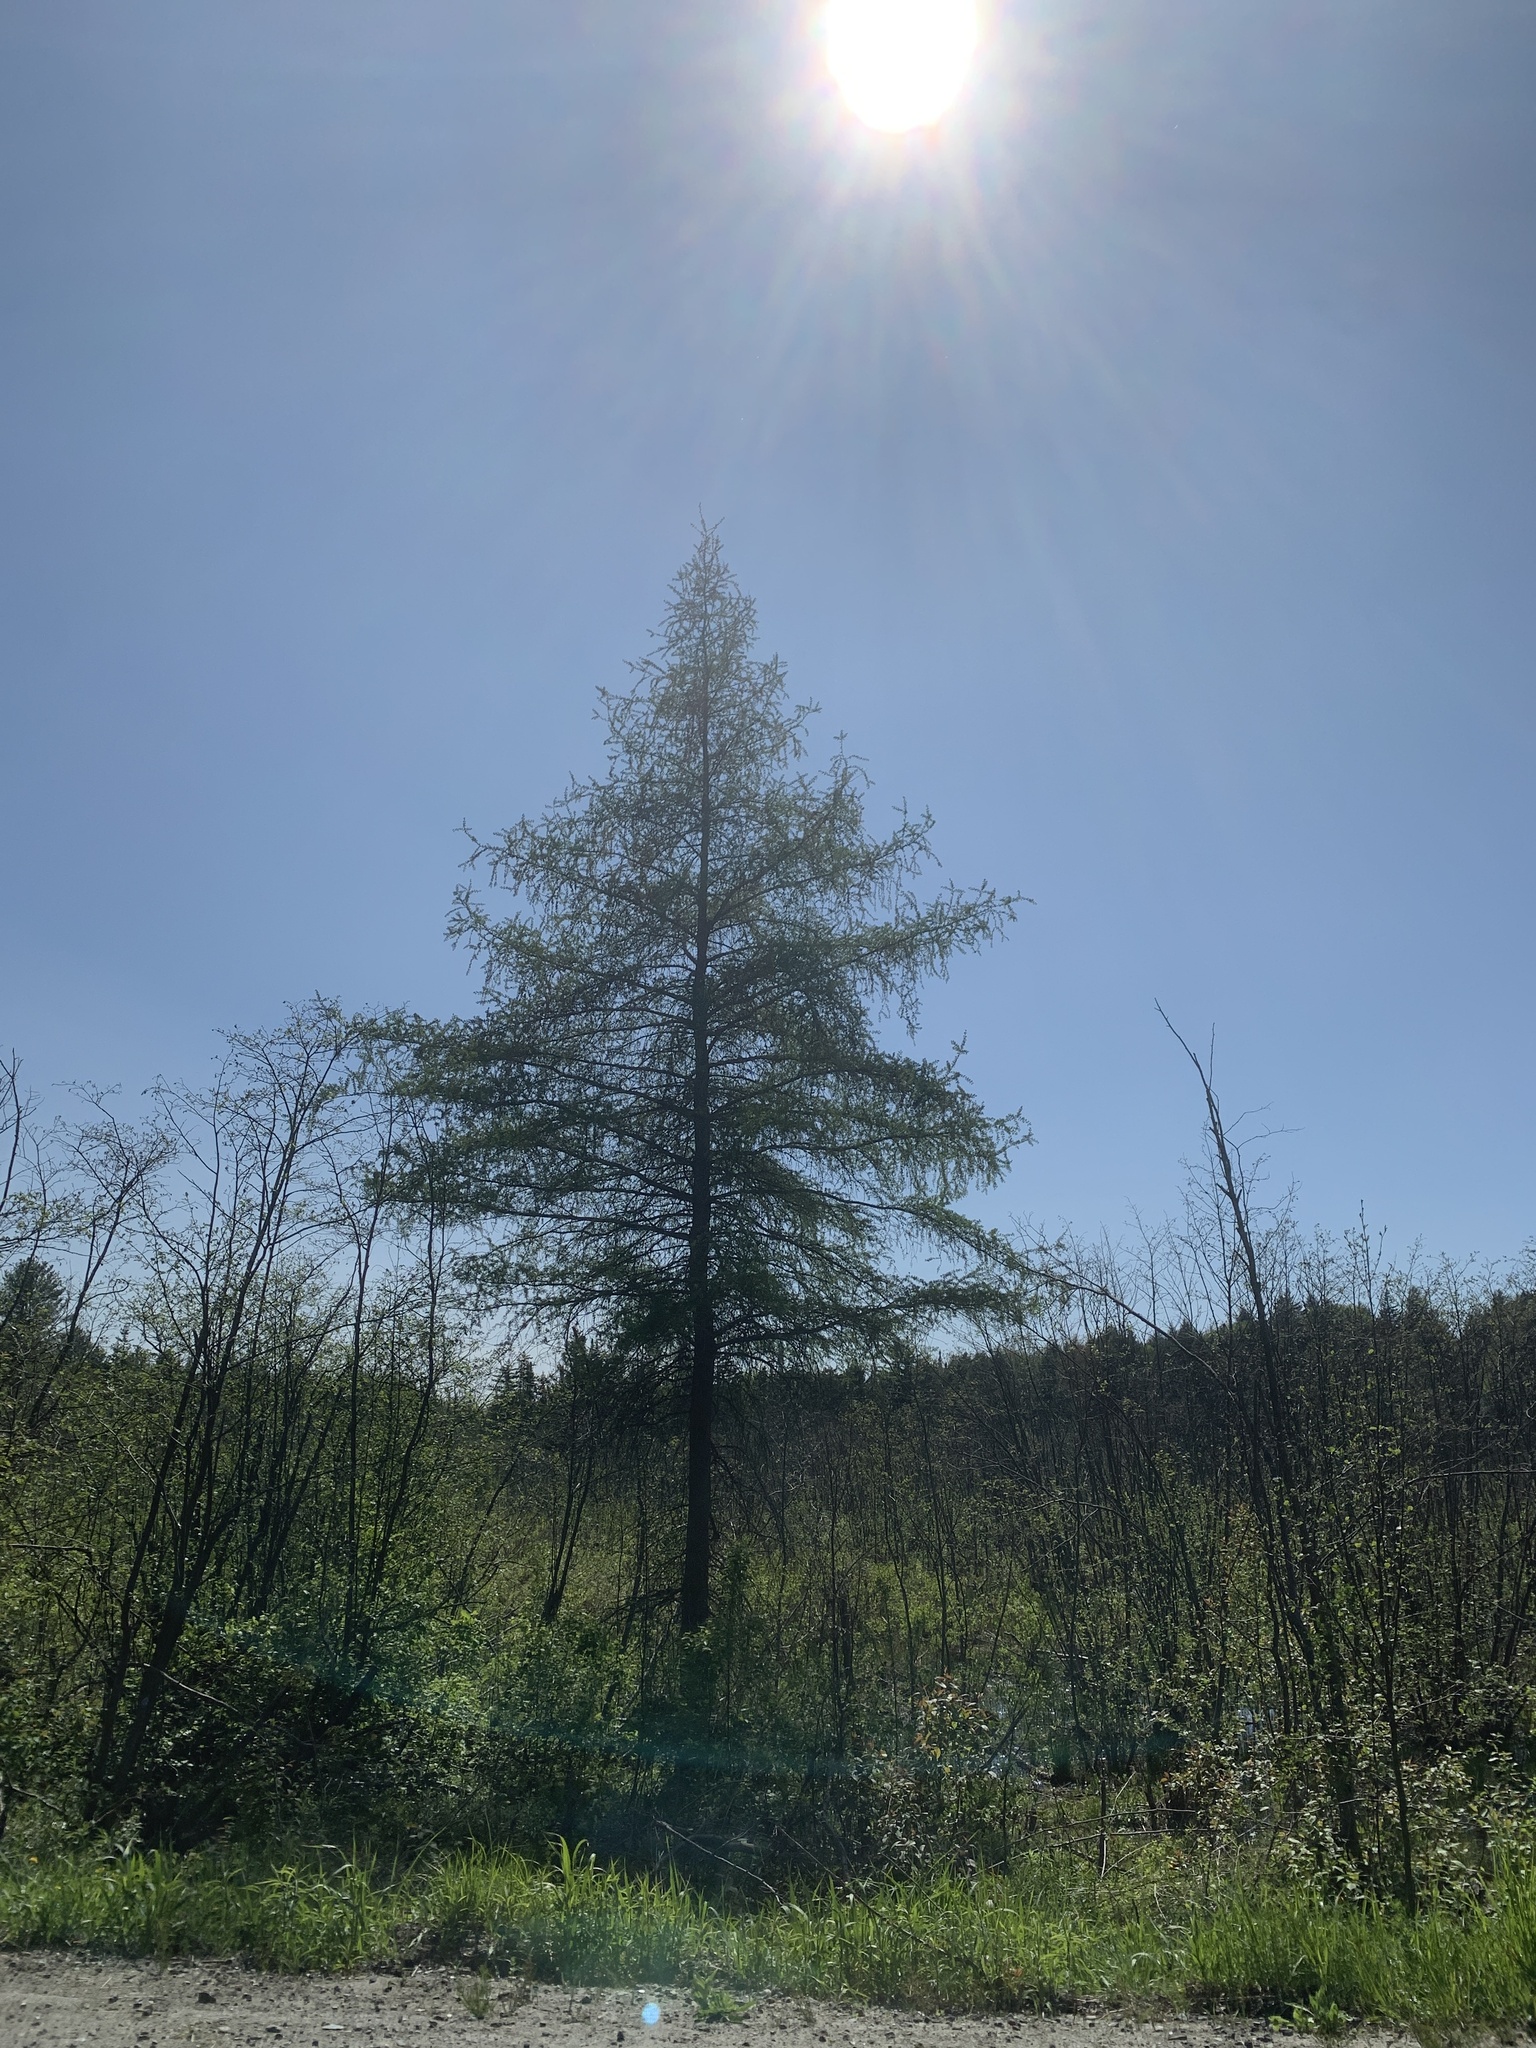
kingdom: Plantae
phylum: Tracheophyta
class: Pinopsida
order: Pinales
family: Pinaceae
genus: Larix
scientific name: Larix laricina
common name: American larch
